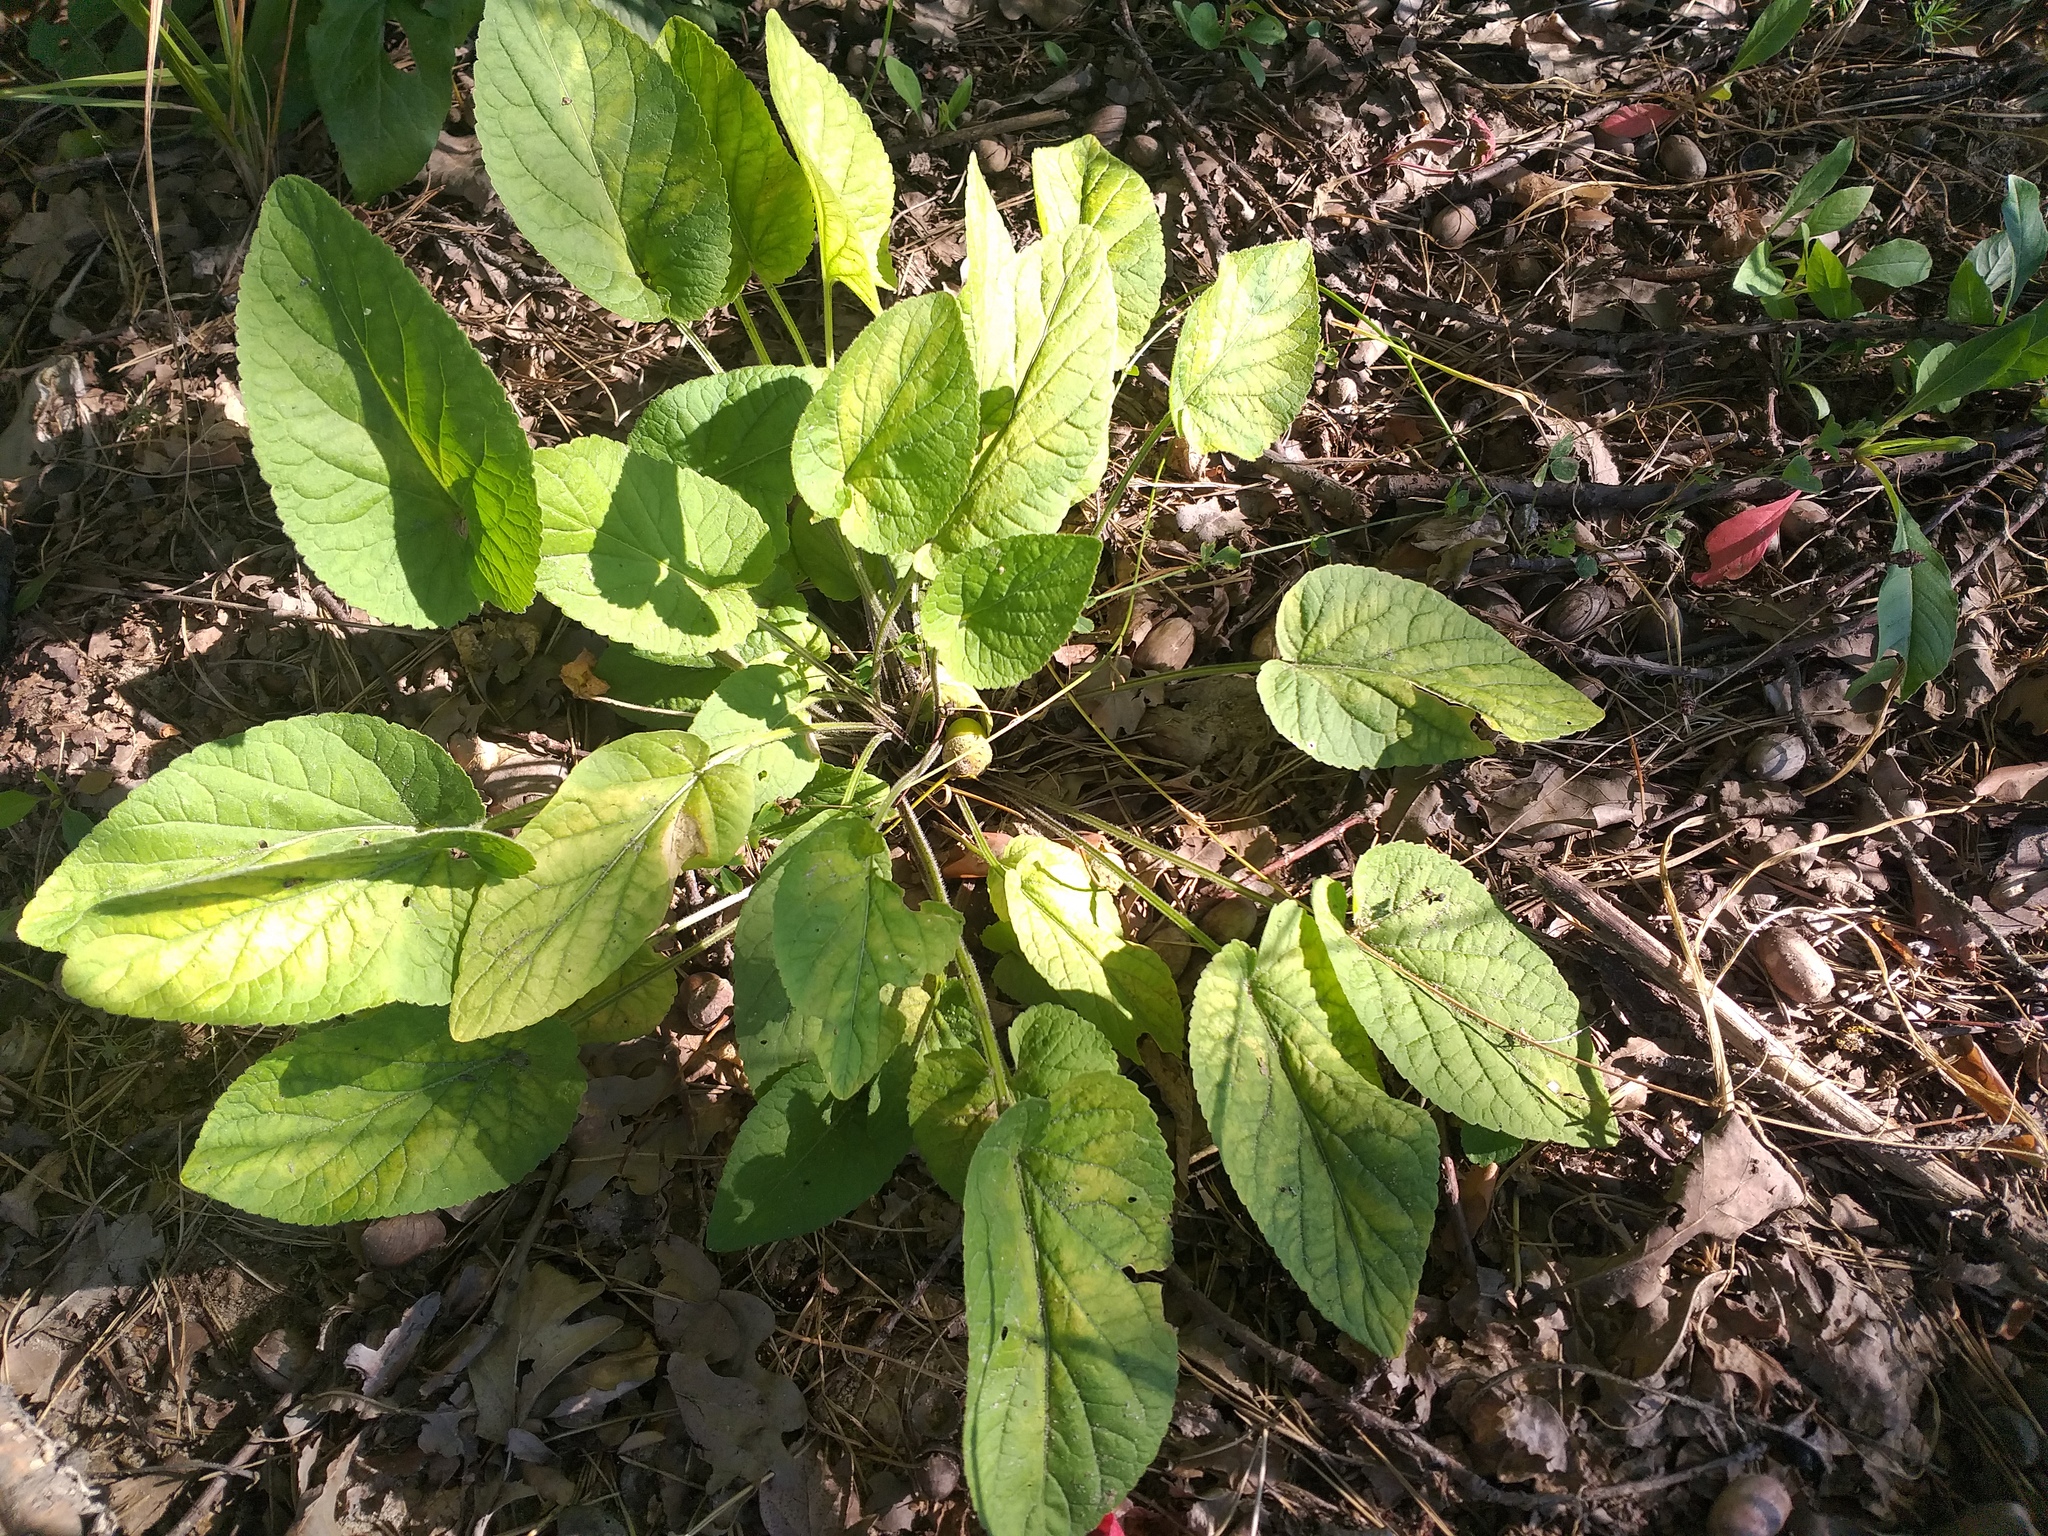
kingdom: Plantae
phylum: Tracheophyta
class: Magnoliopsida
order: Malpighiales
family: Violaceae
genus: Viola
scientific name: Viola hirta
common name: Hairy violet
